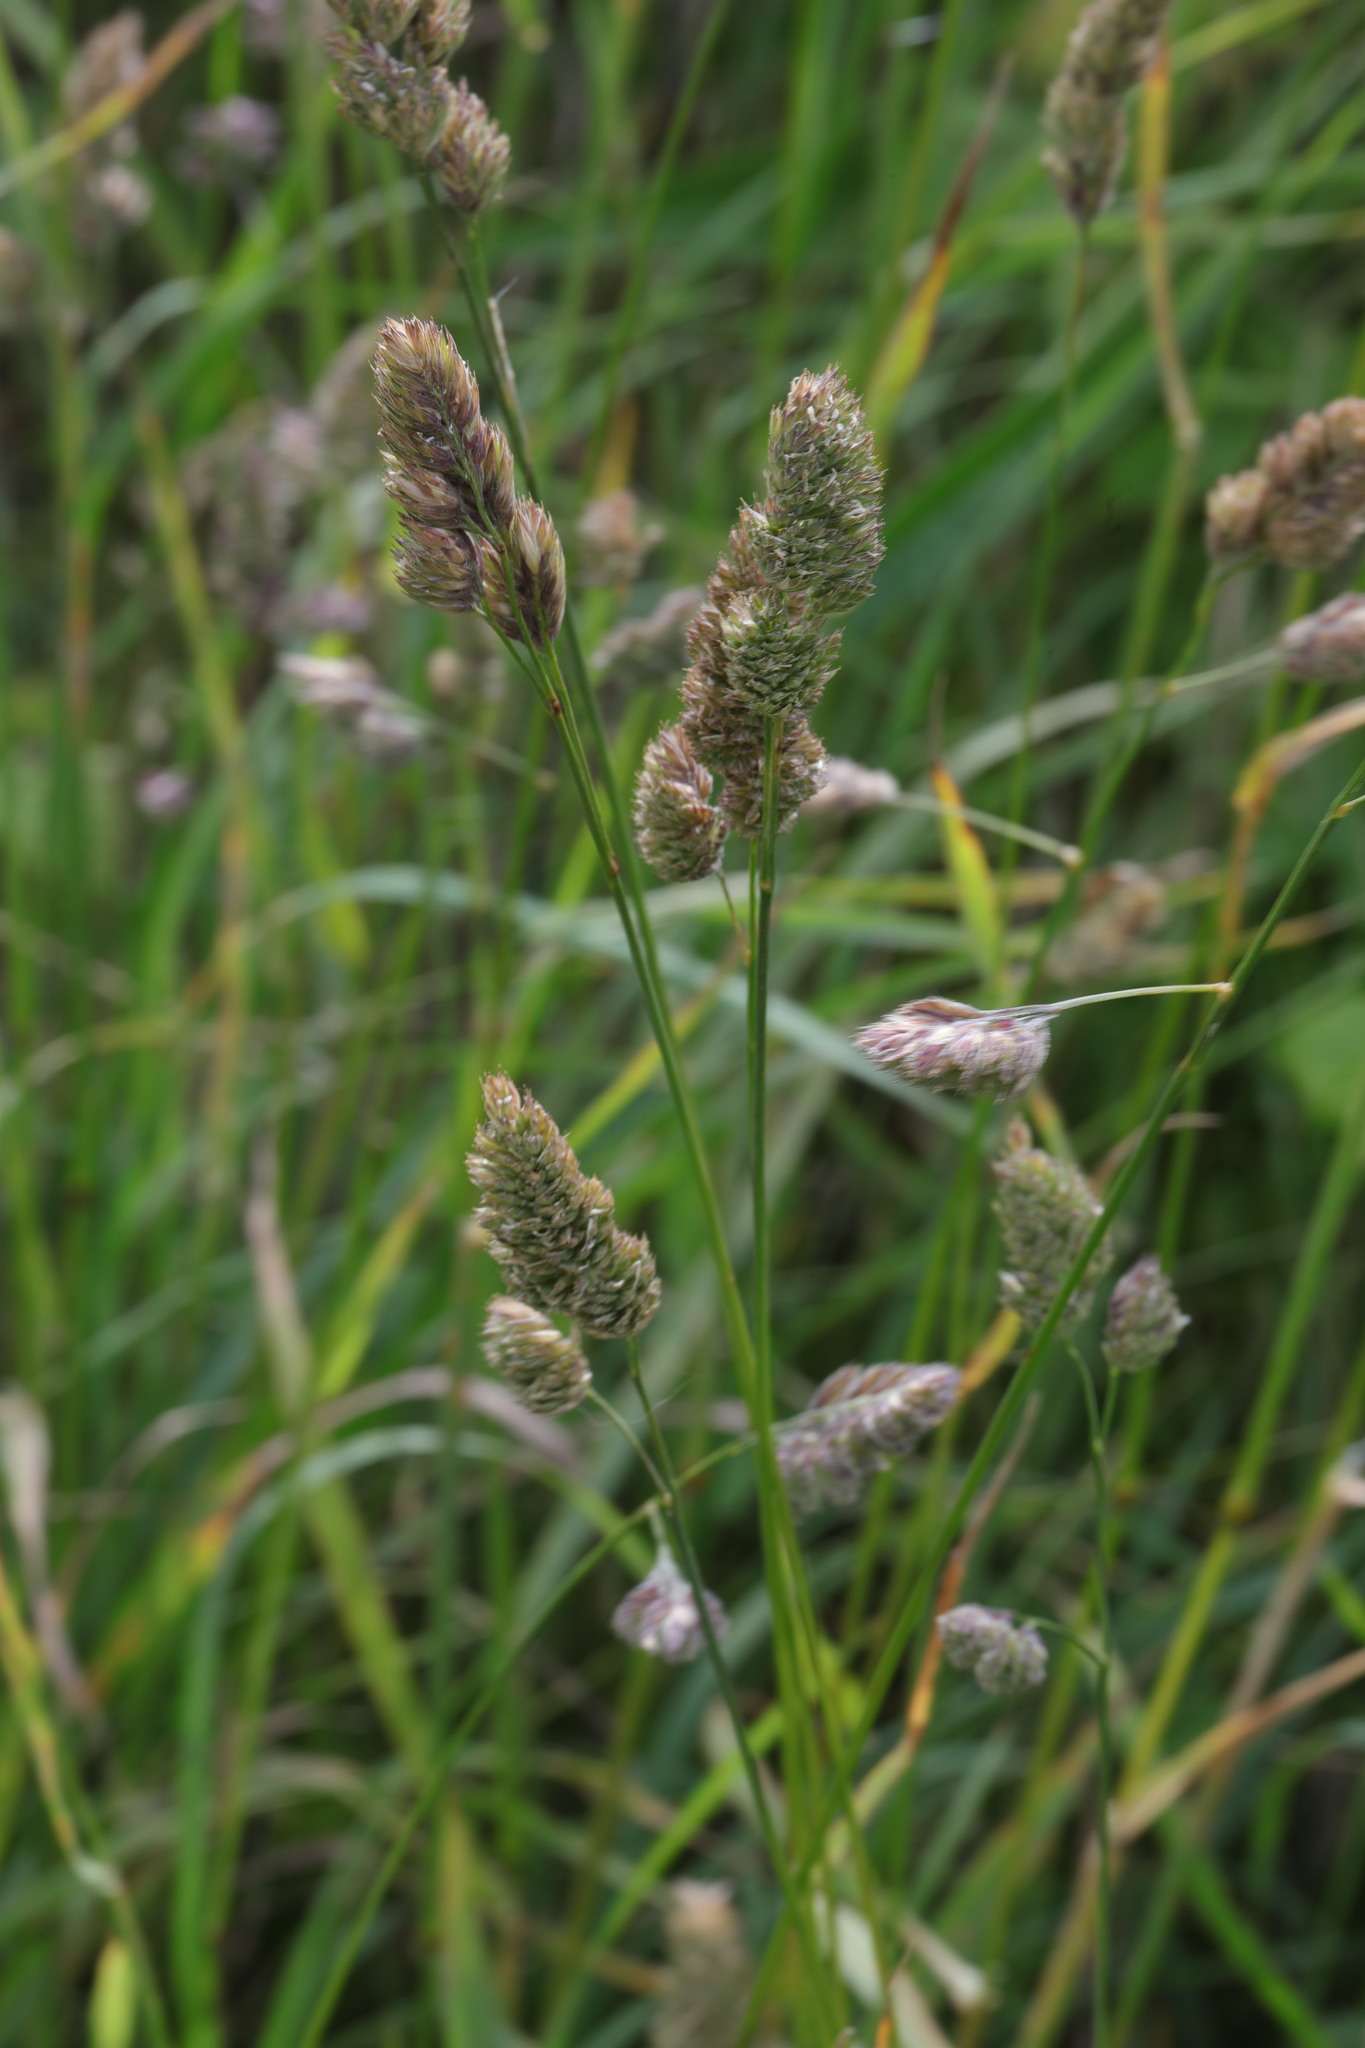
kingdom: Plantae
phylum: Tracheophyta
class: Liliopsida
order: Poales
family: Poaceae
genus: Dactylis
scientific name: Dactylis glomerata
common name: Orchardgrass
